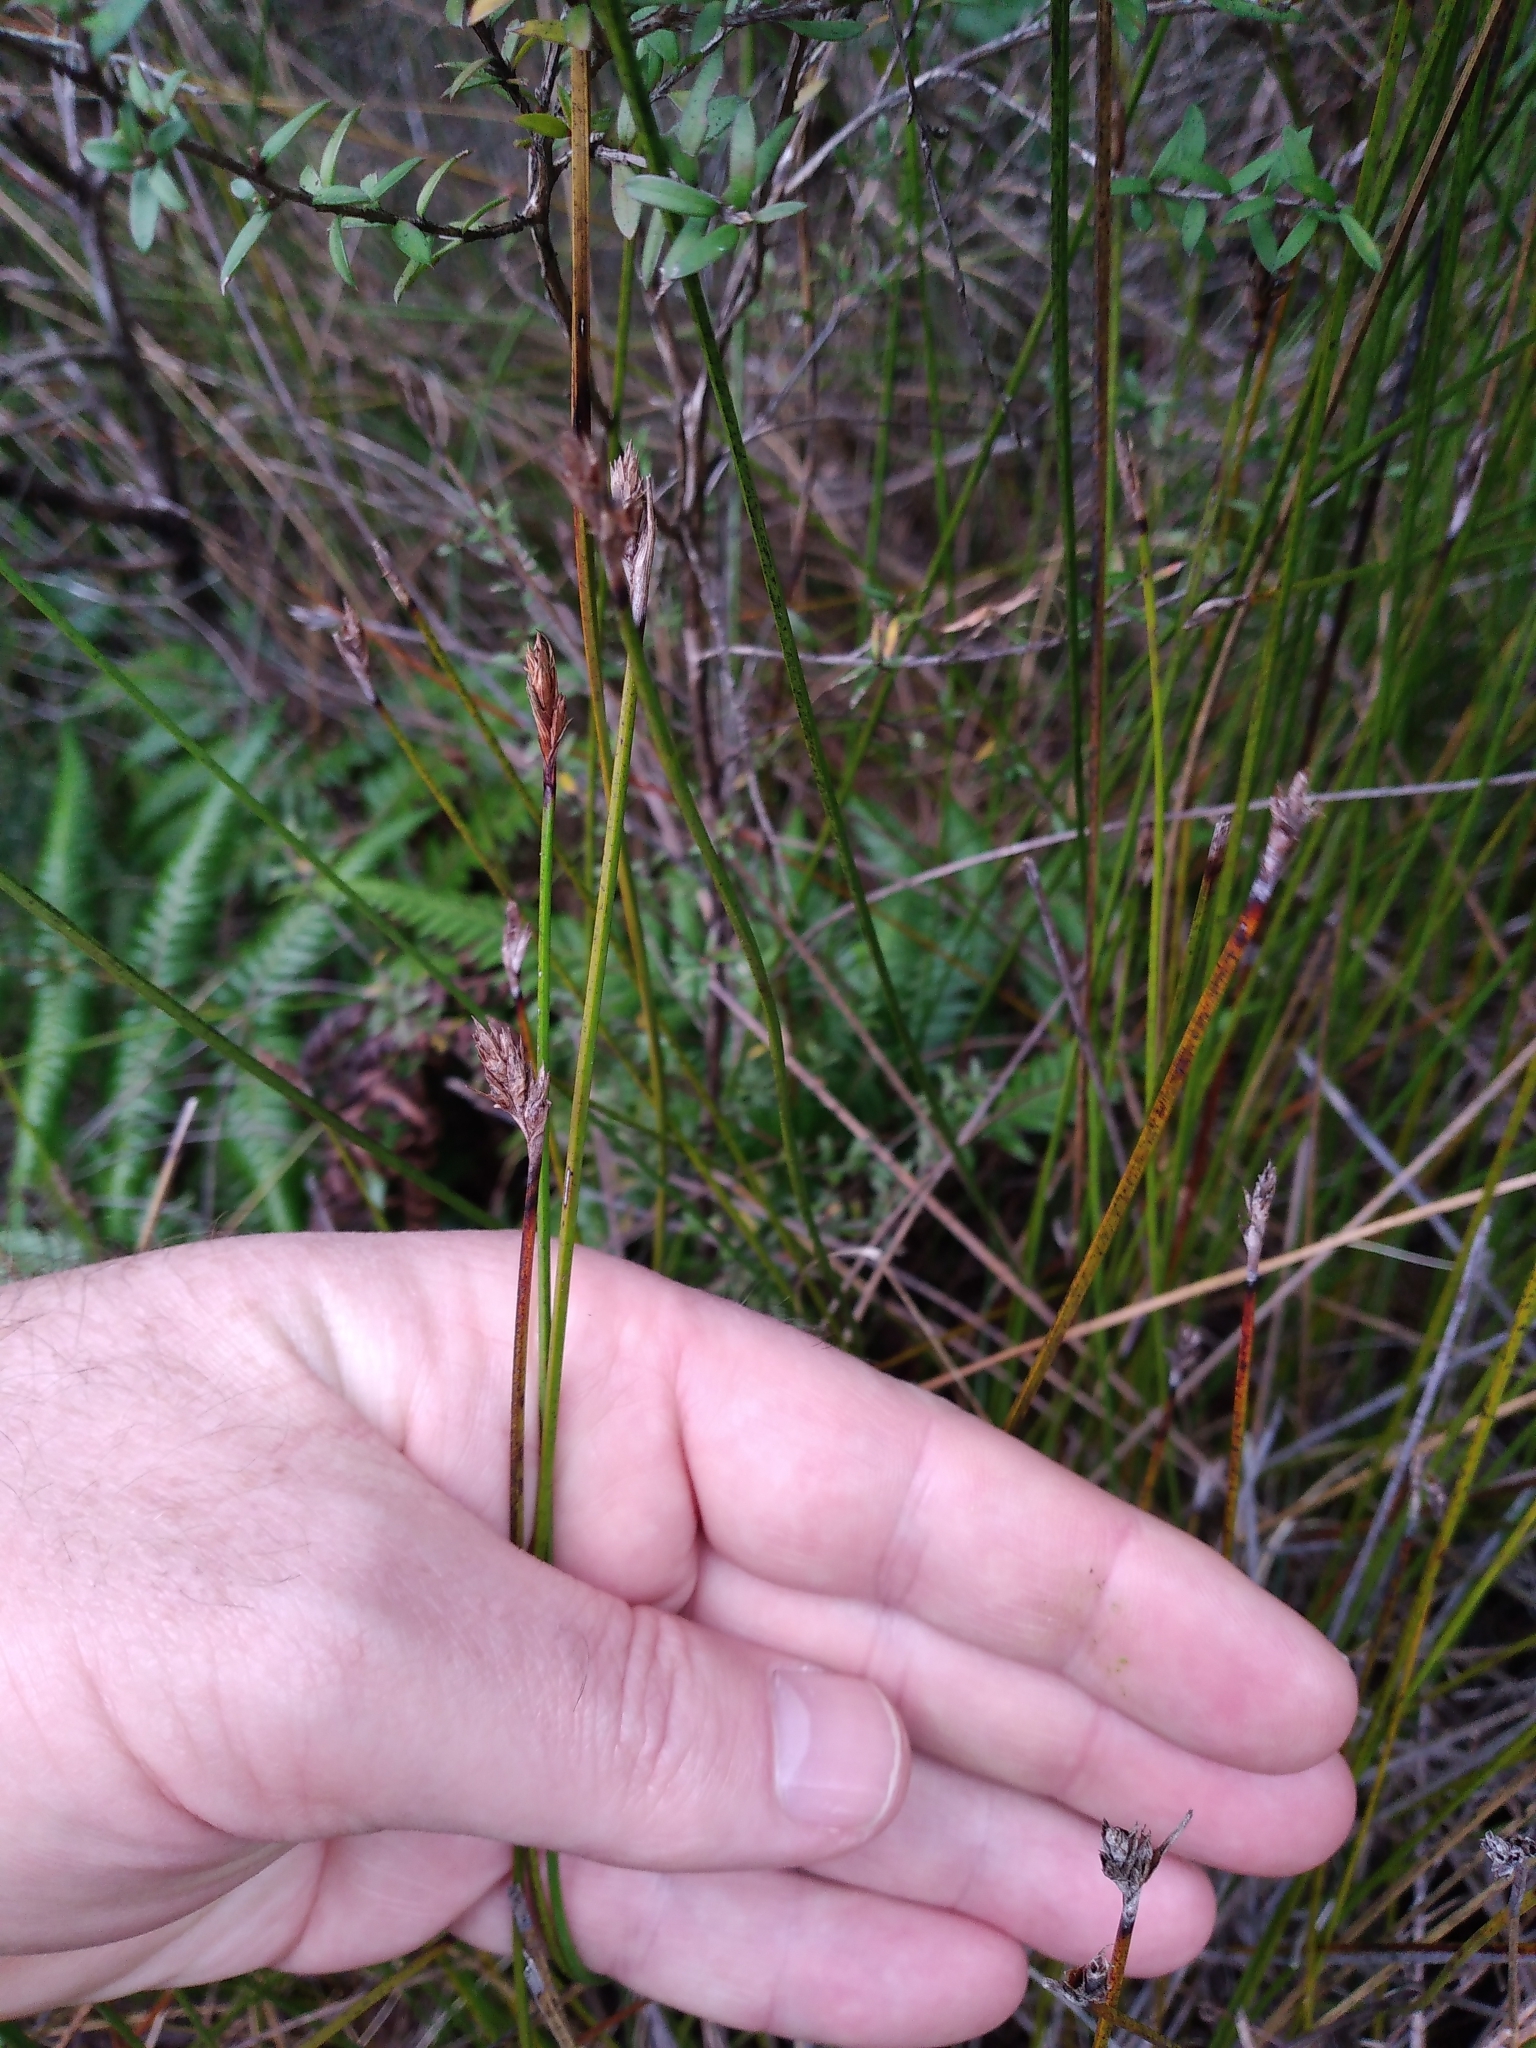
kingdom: Plantae
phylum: Tracheophyta
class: Liliopsida
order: Poales
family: Cyperaceae
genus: Lepidosperma
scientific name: Lepidosperma australe
